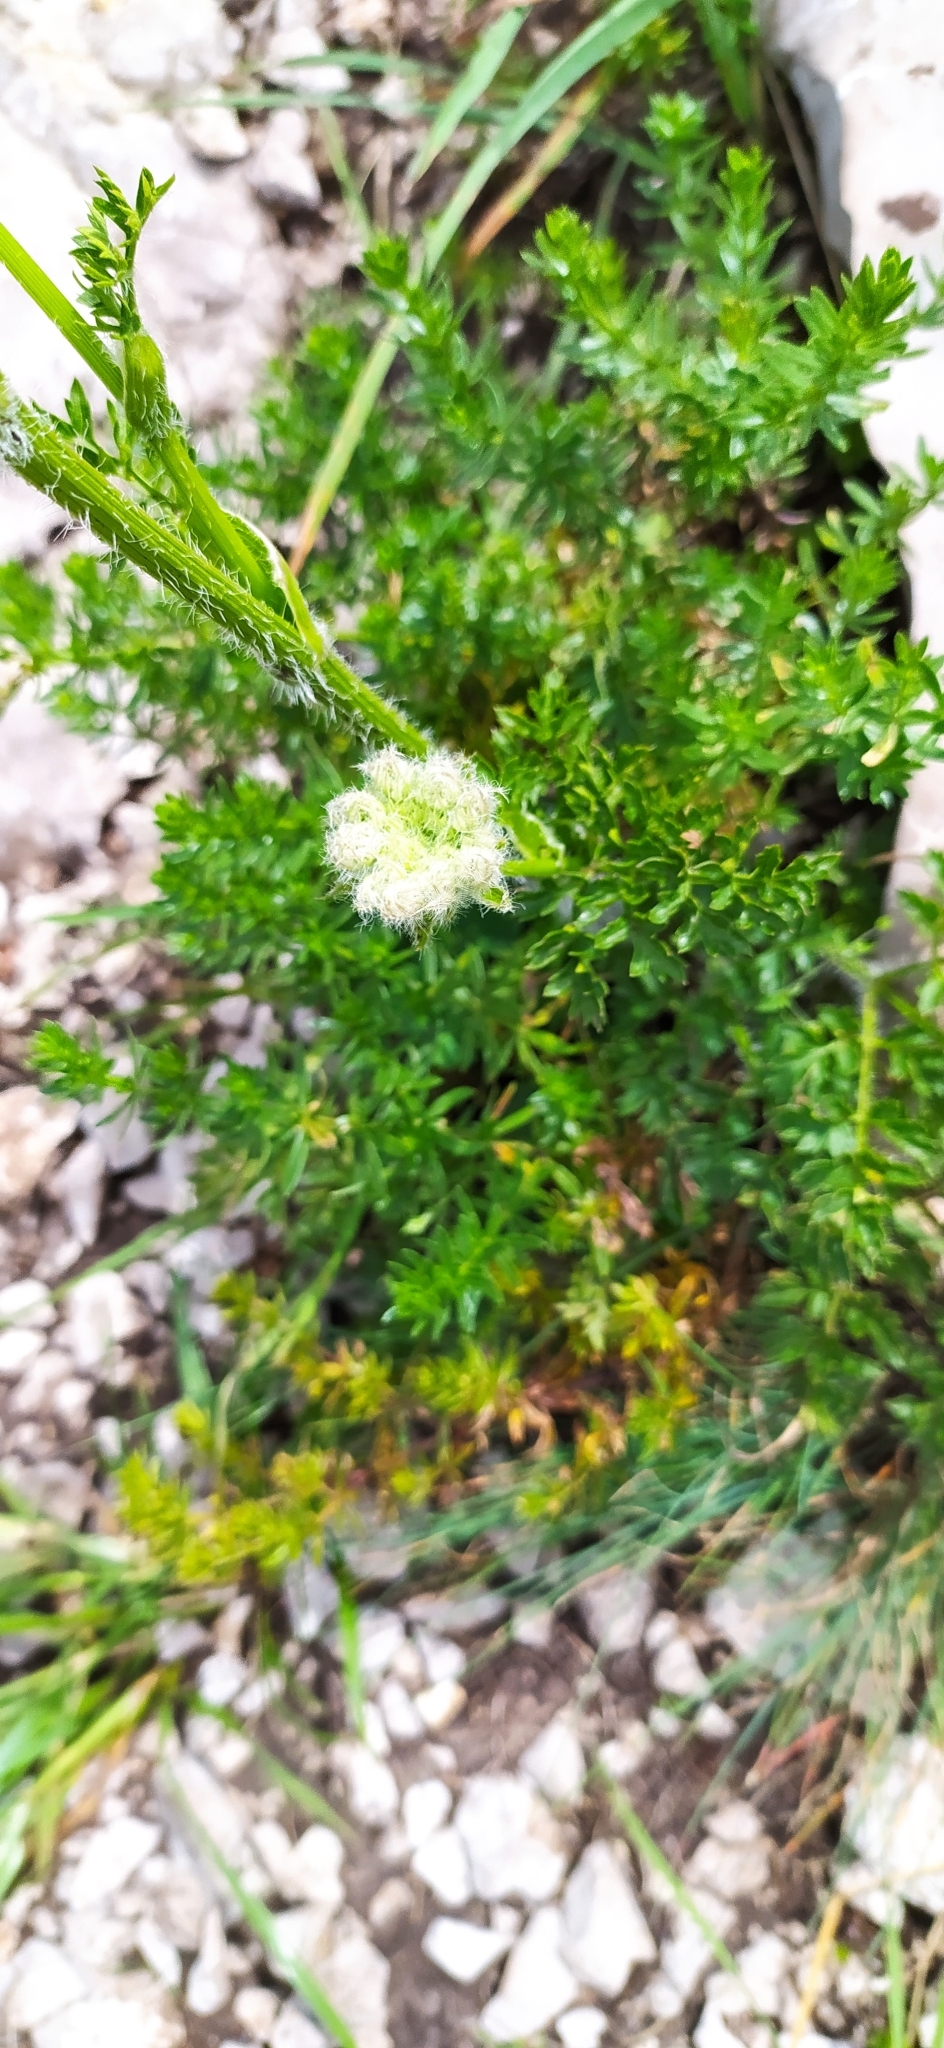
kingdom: Plantae
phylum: Tracheophyta
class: Magnoliopsida
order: Apiales
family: Apiaceae
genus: Silphiodaucus
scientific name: Silphiodaucus hispidus
